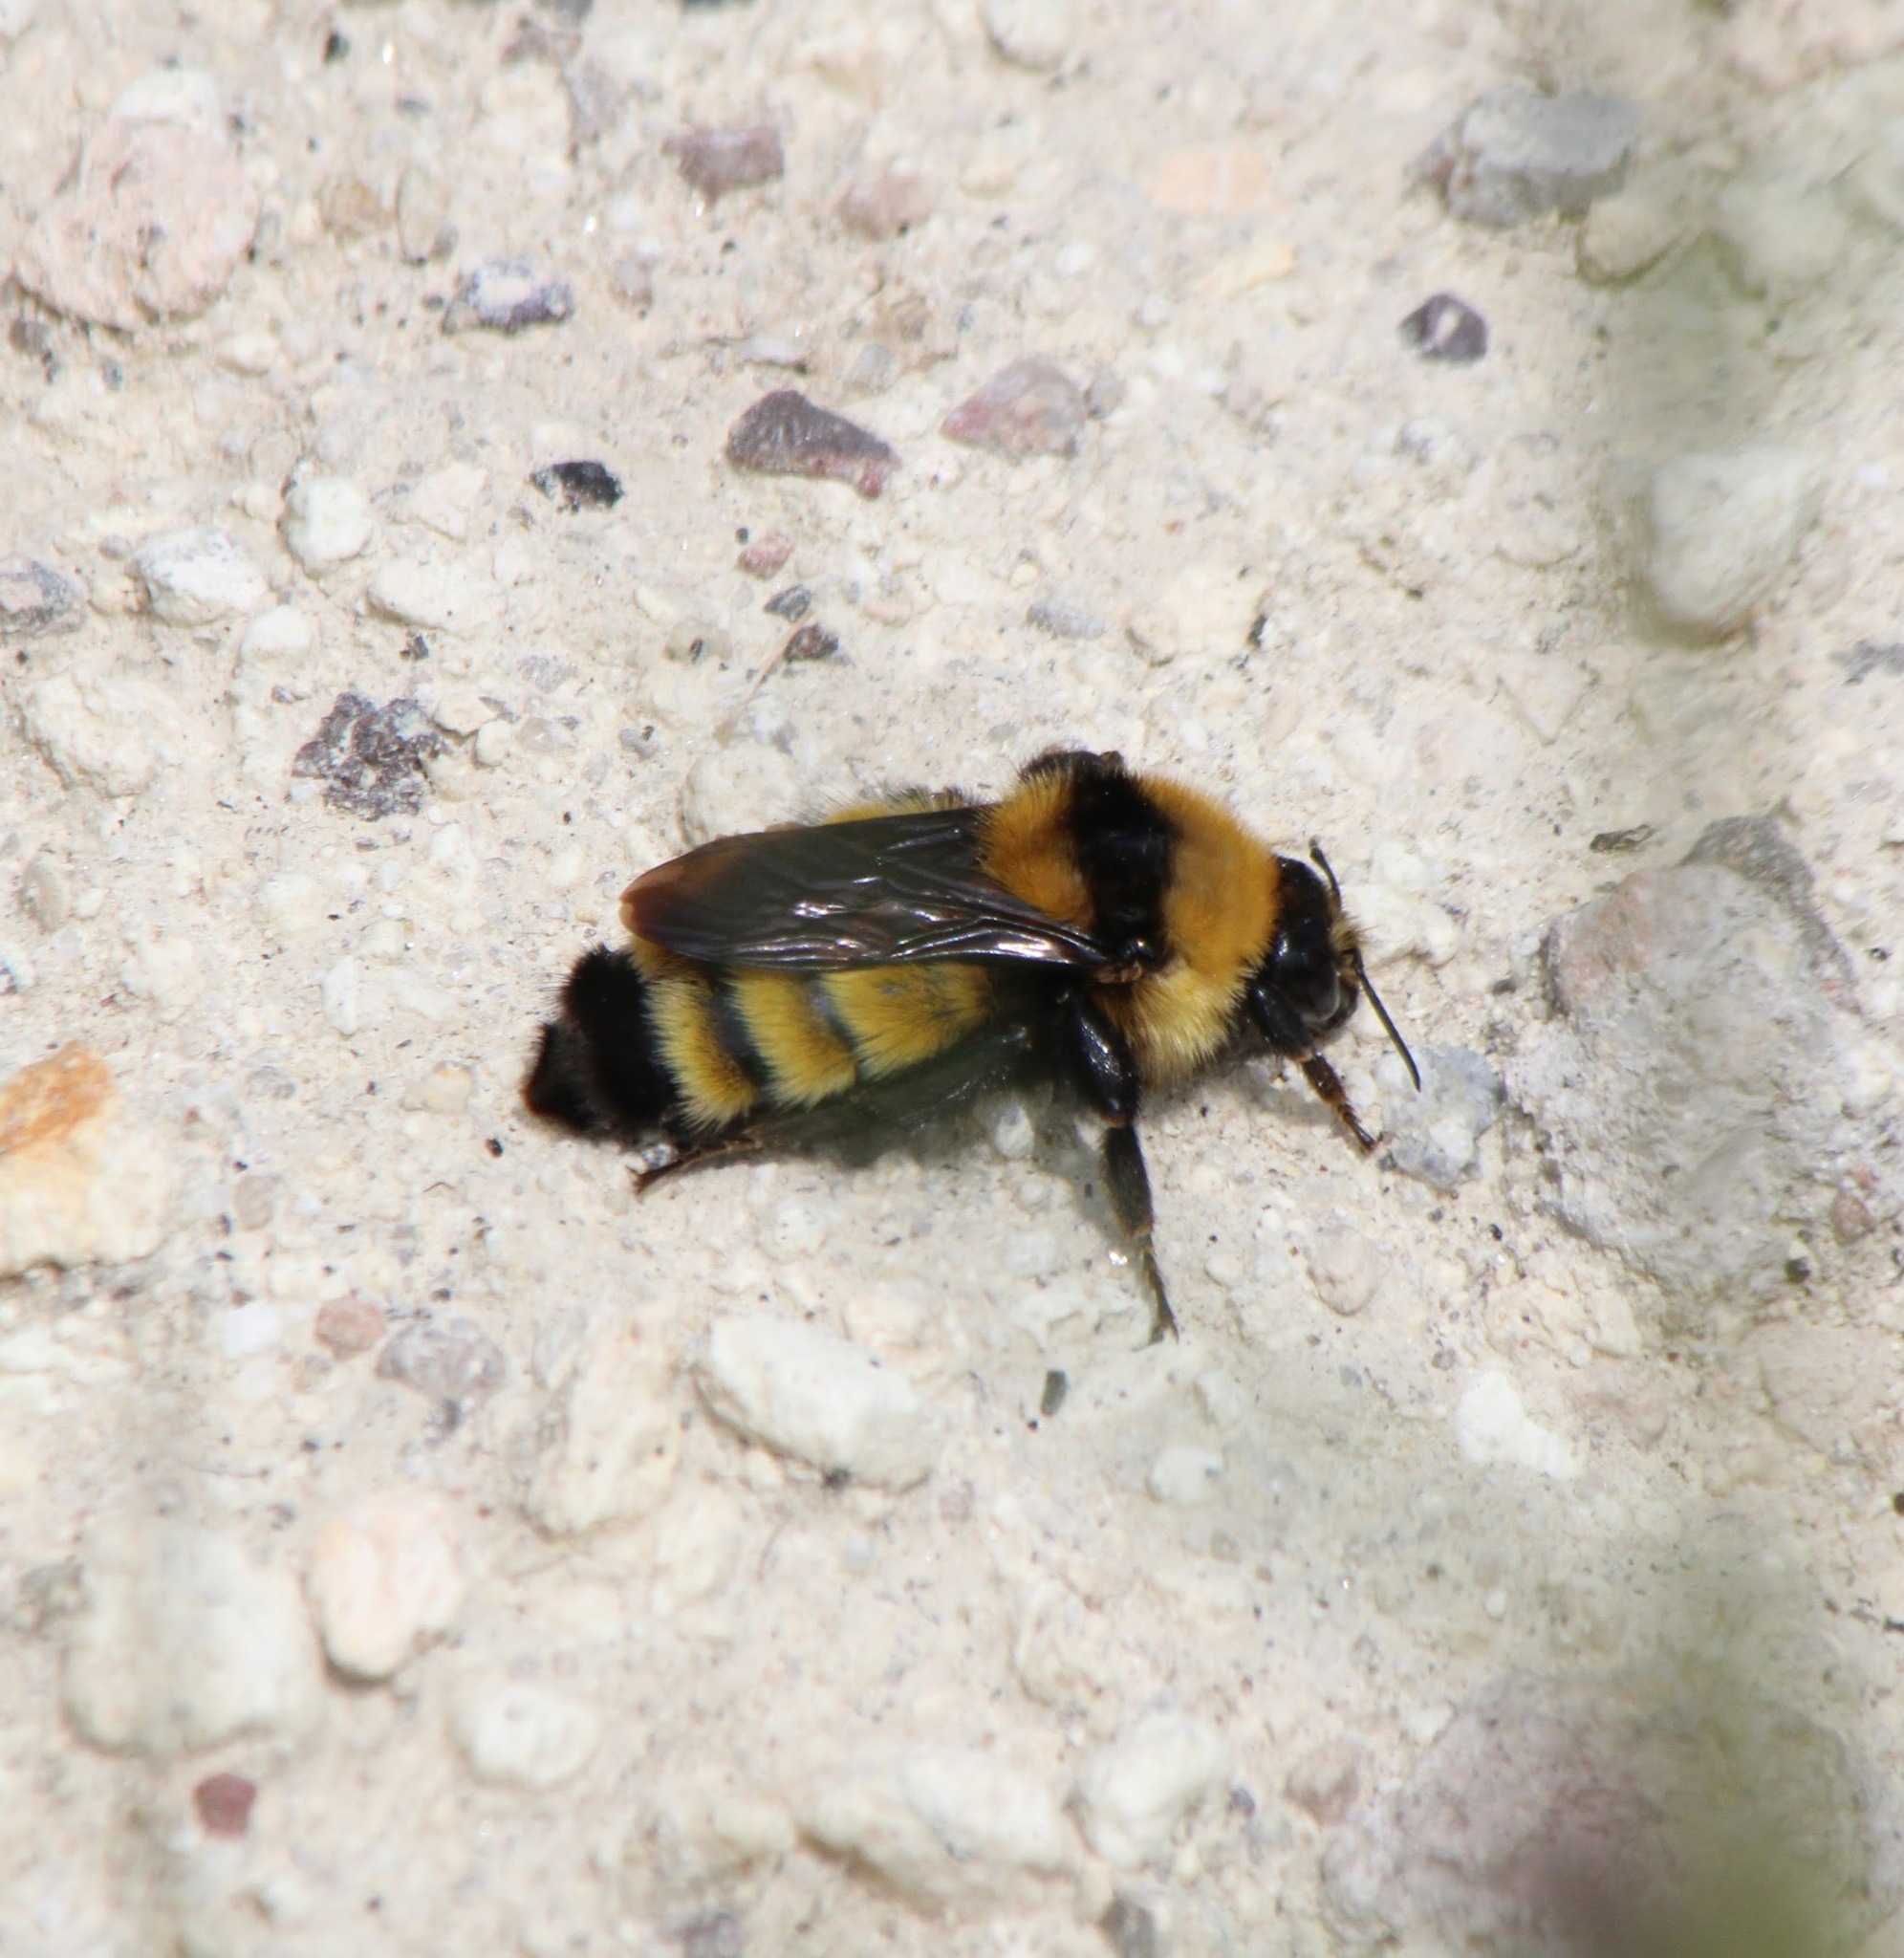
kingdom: Animalia
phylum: Arthropoda
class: Insecta
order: Hymenoptera
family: Apidae
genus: Bombus
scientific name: Bombus zonatus
